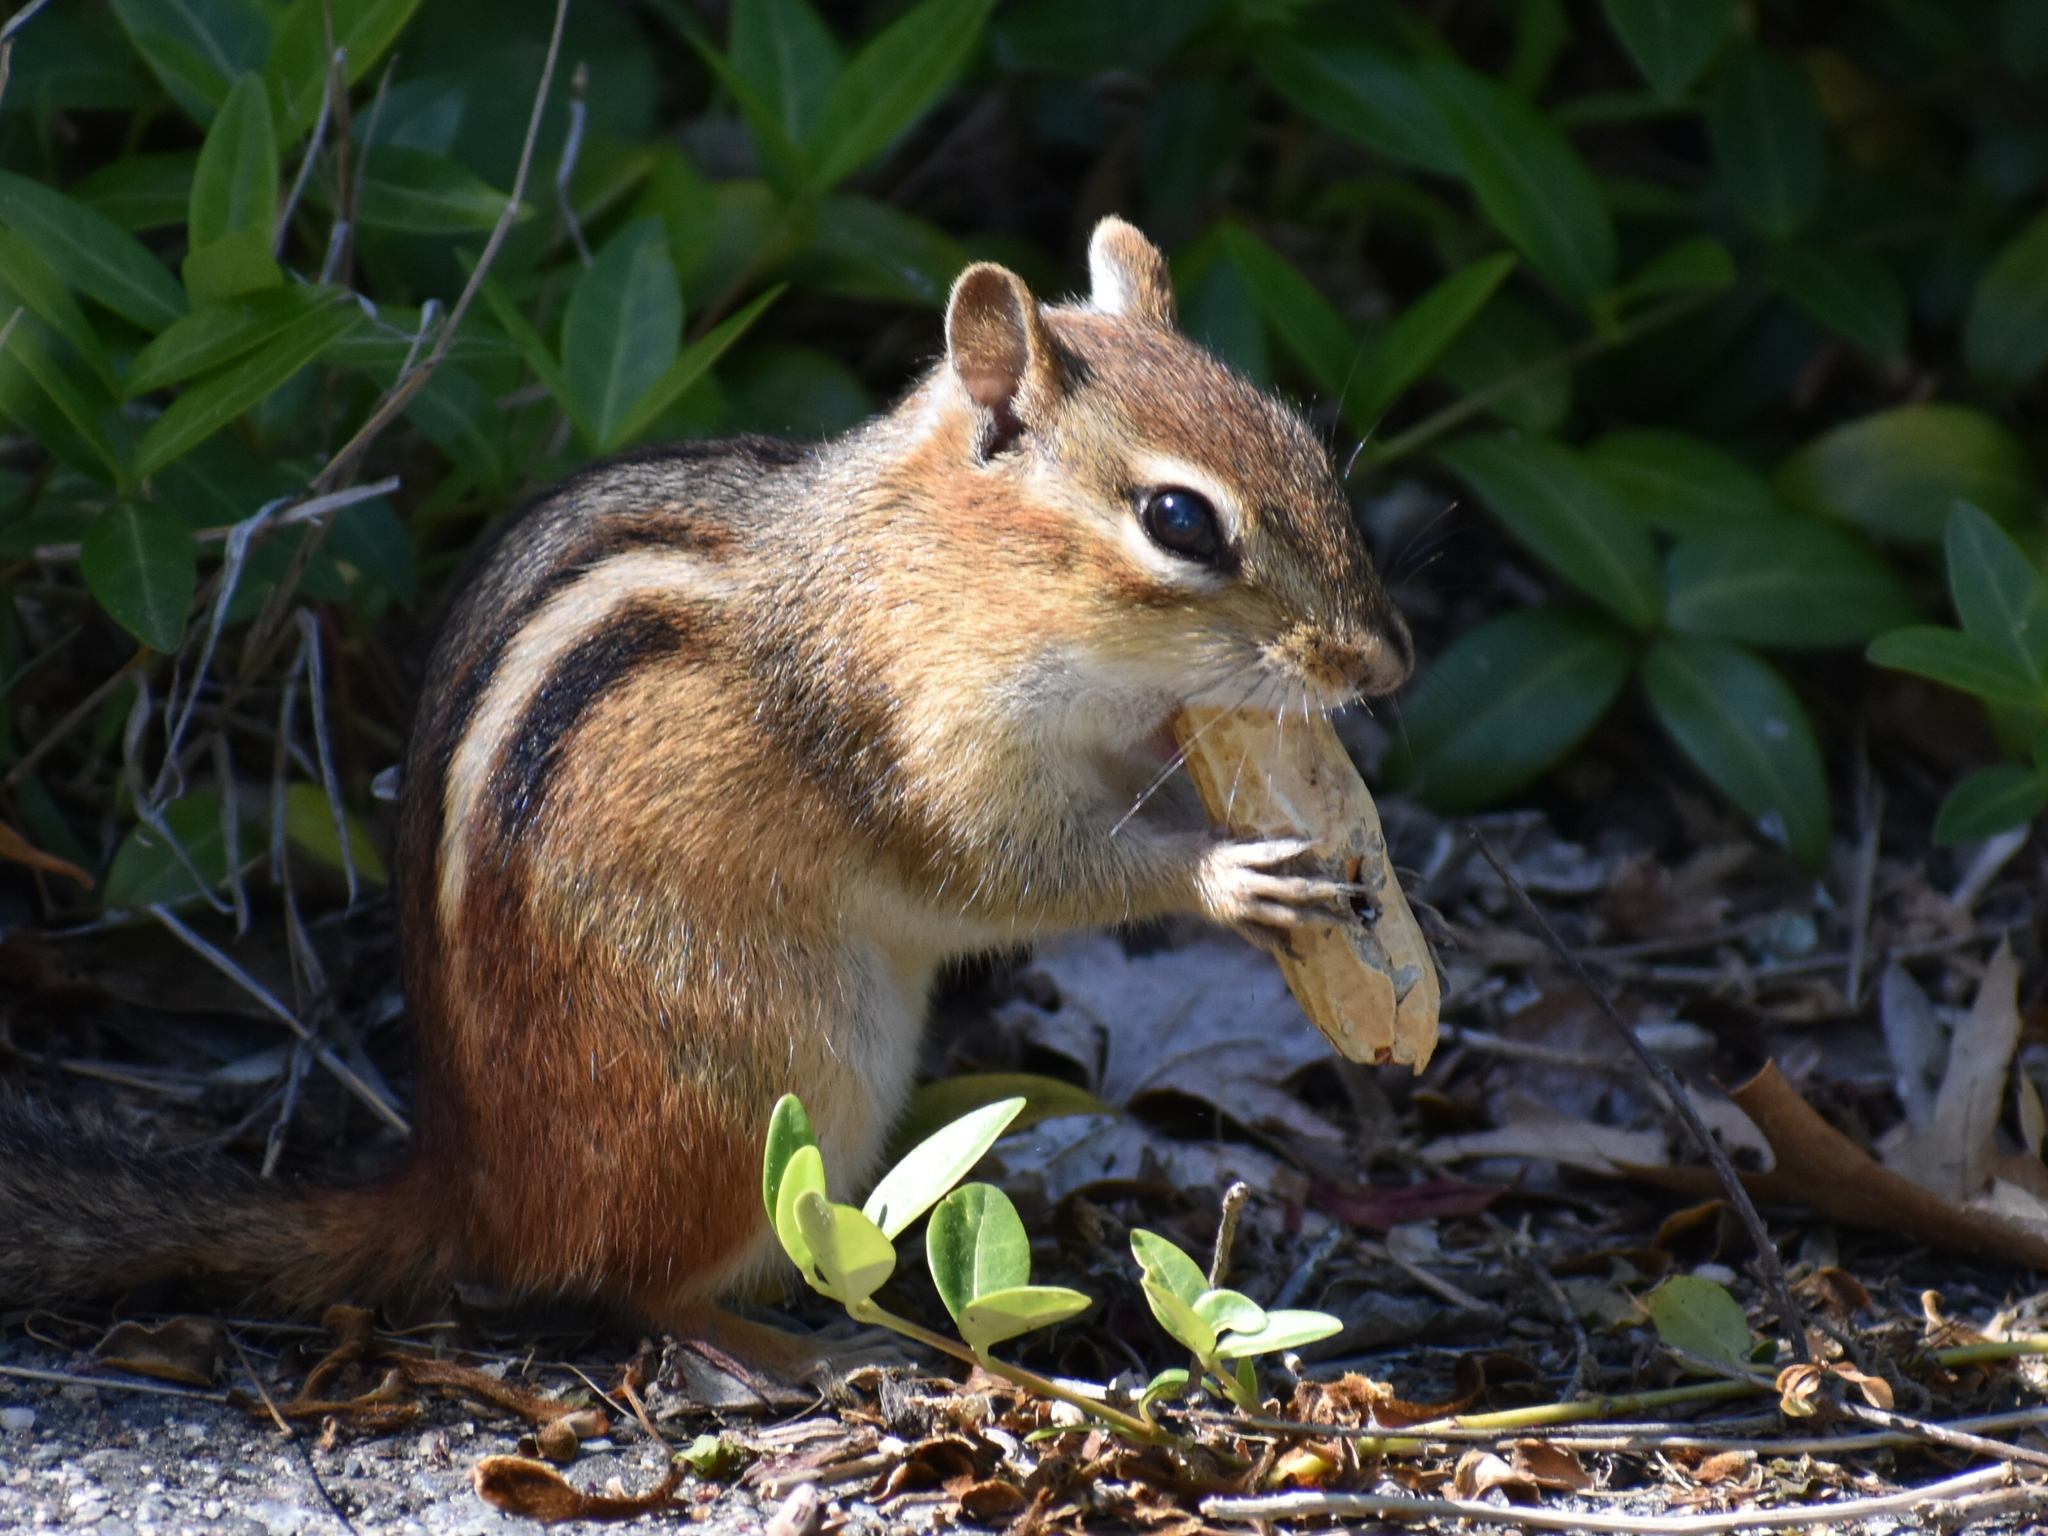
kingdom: Animalia
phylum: Chordata
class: Mammalia
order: Rodentia
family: Sciuridae
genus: Tamias
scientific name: Tamias striatus
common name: Eastern chipmunk
